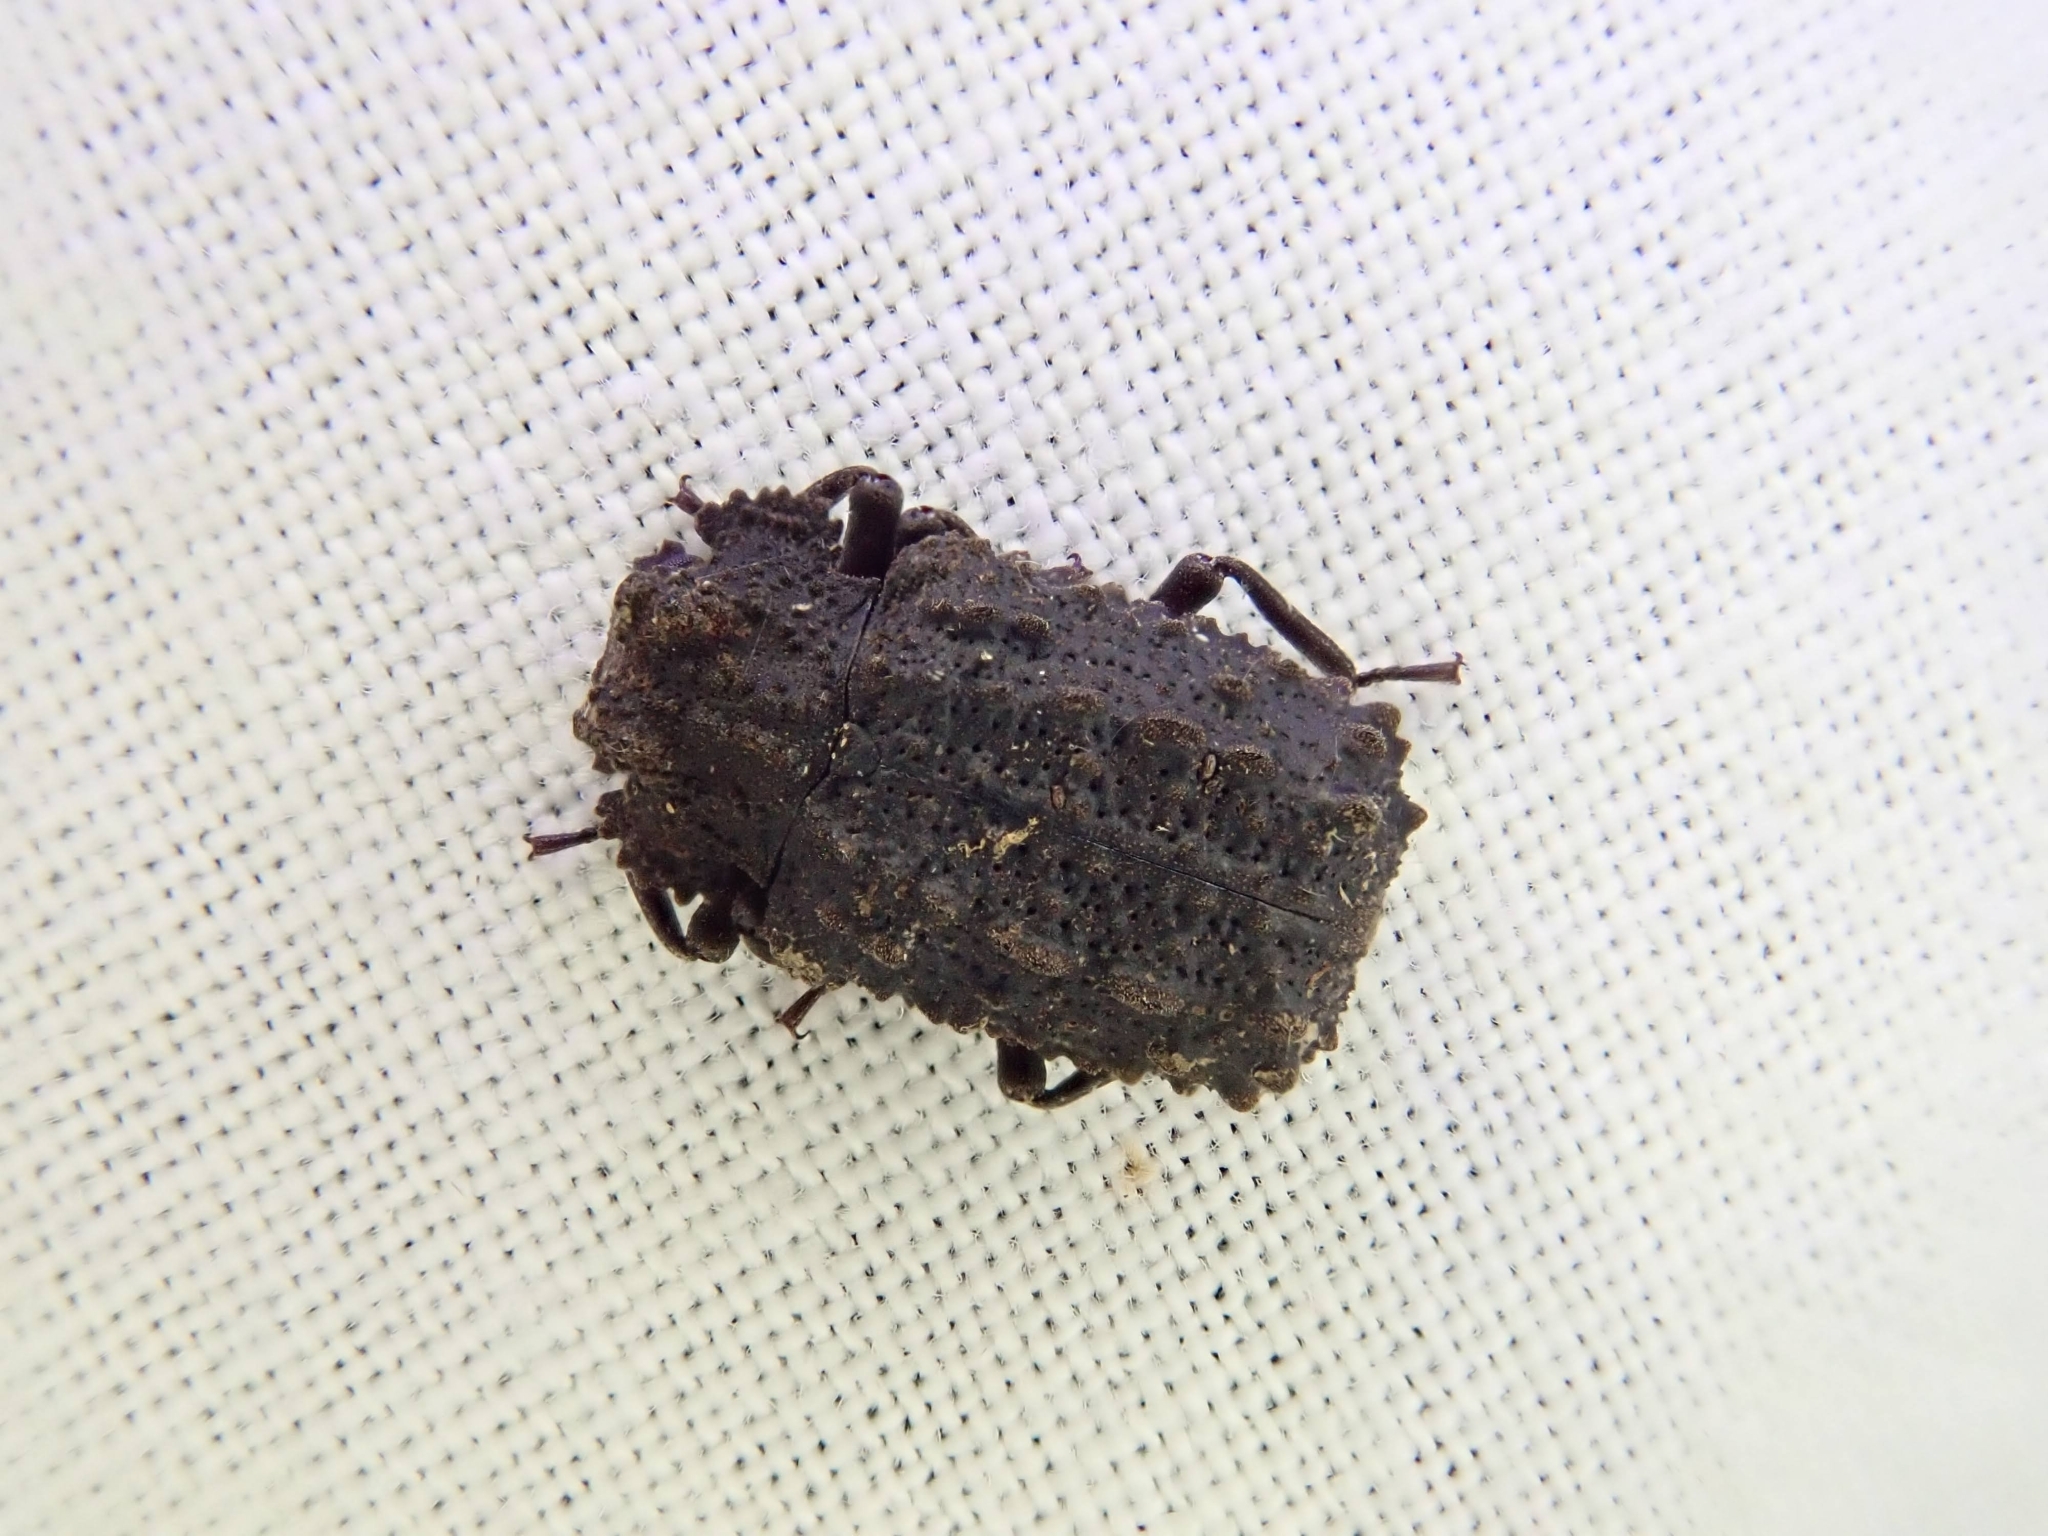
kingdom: Animalia
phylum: Arthropoda
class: Insecta
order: Coleoptera
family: Tenebrionidae
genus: Gnatocerus
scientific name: Gnatocerus cornutus
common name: Broad-horned flour beetle
